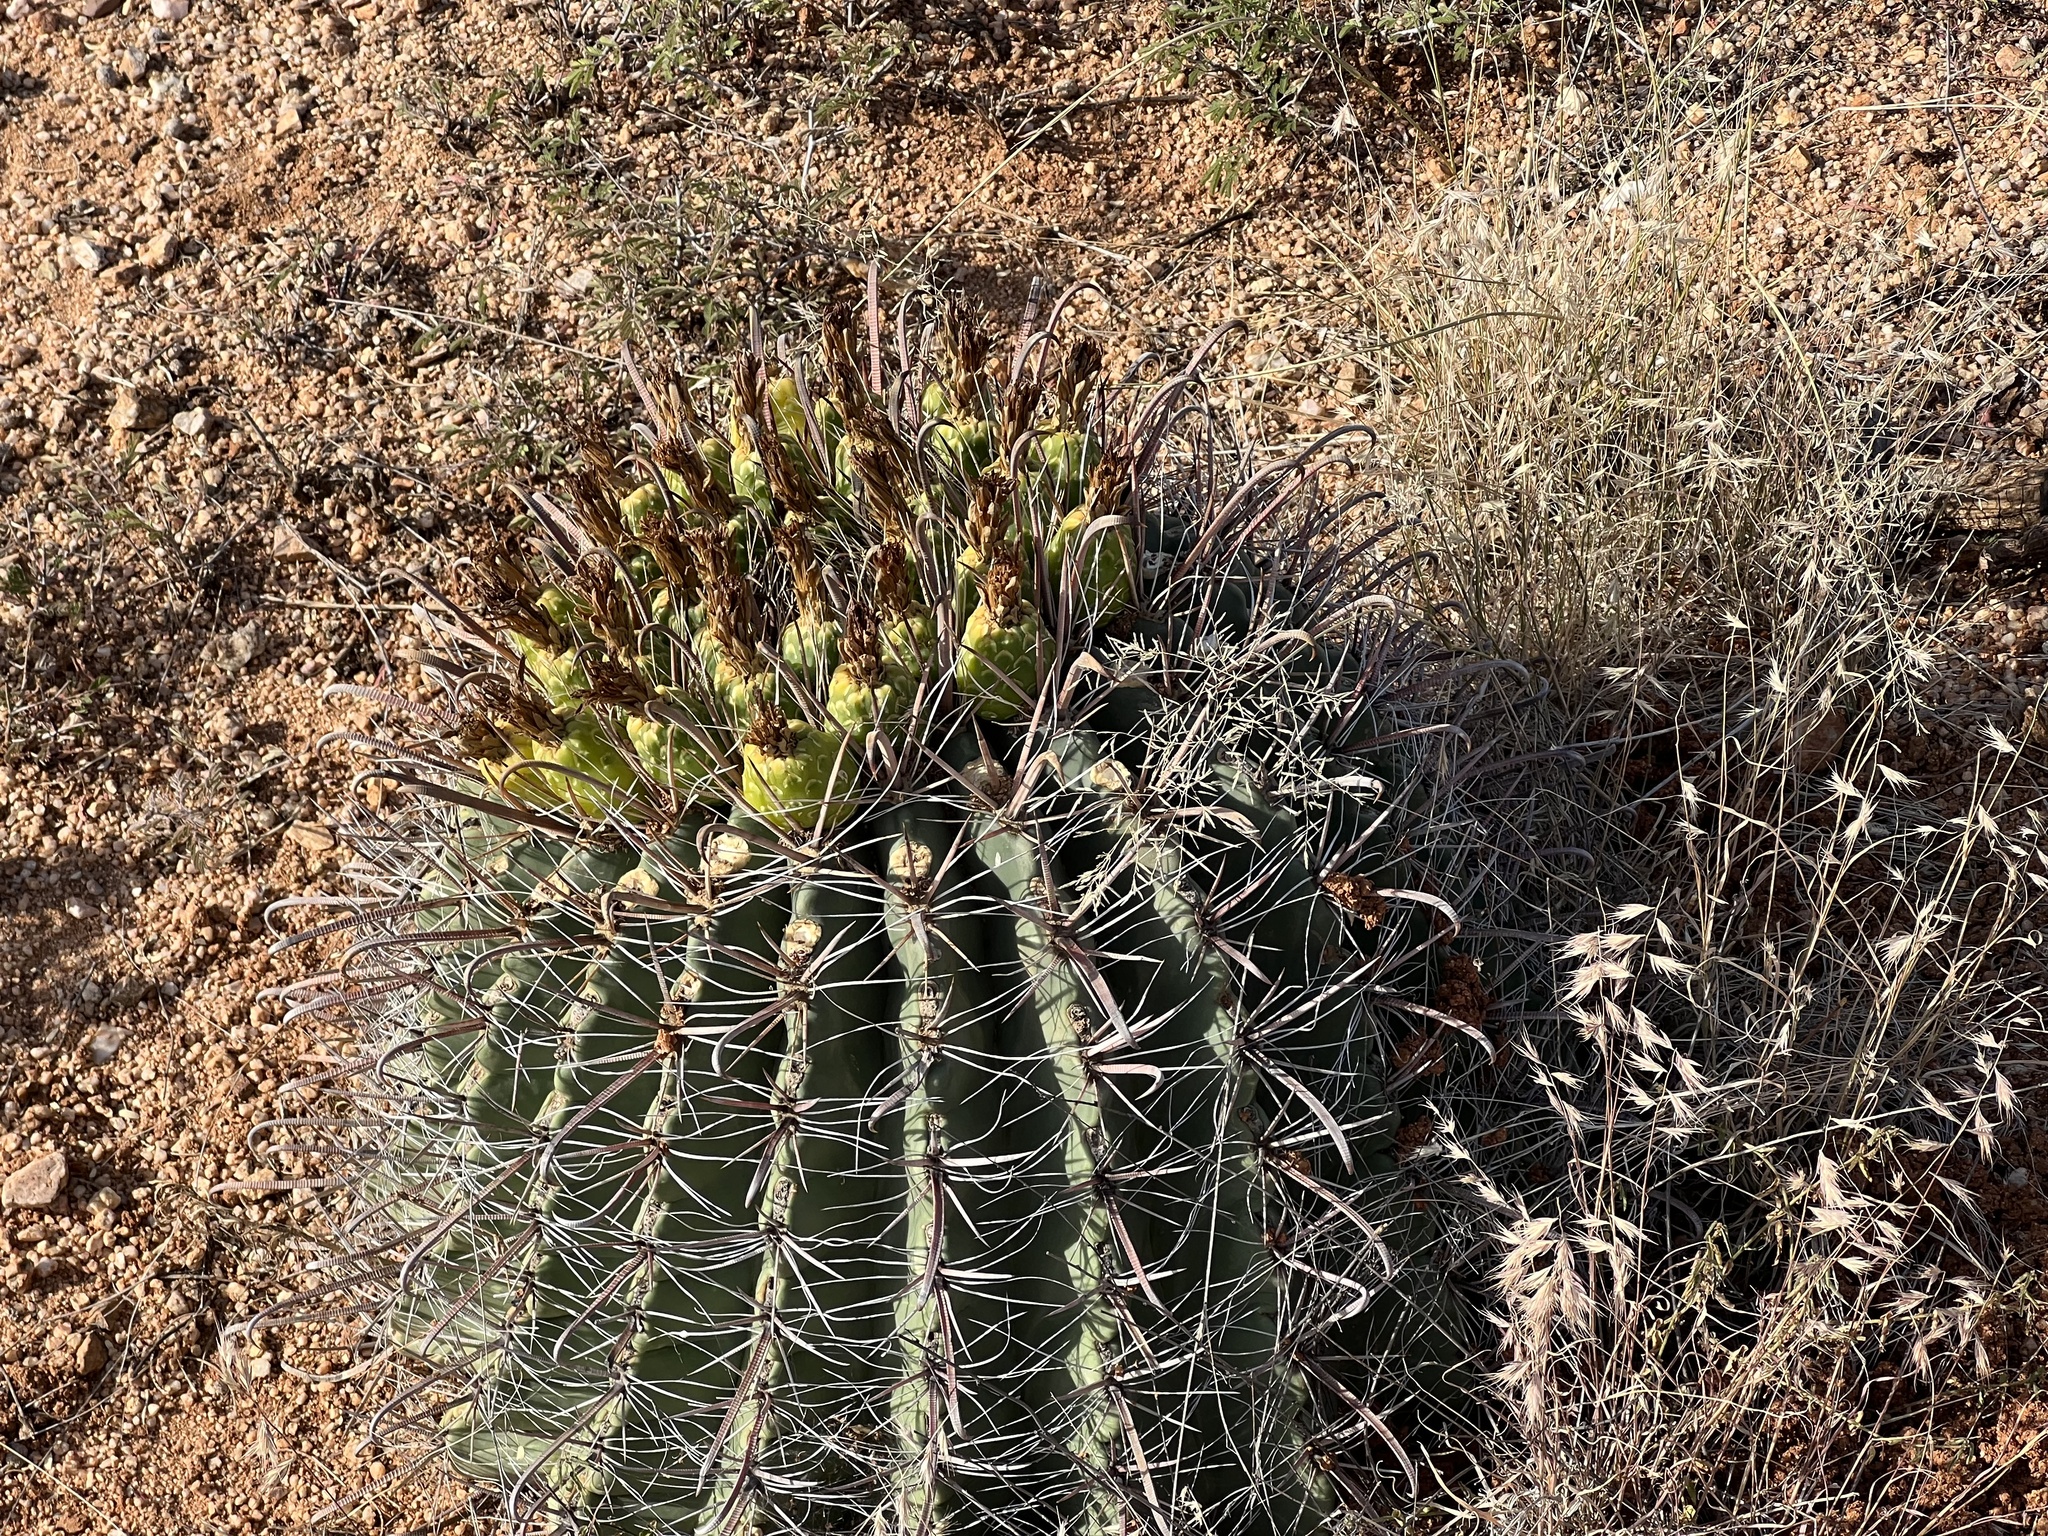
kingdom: Plantae
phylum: Tracheophyta
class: Magnoliopsida
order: Caryophyllales
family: Cactaceae
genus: Ferocactus
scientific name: Ferocactus wislizeni
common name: Candy barrel cactus
